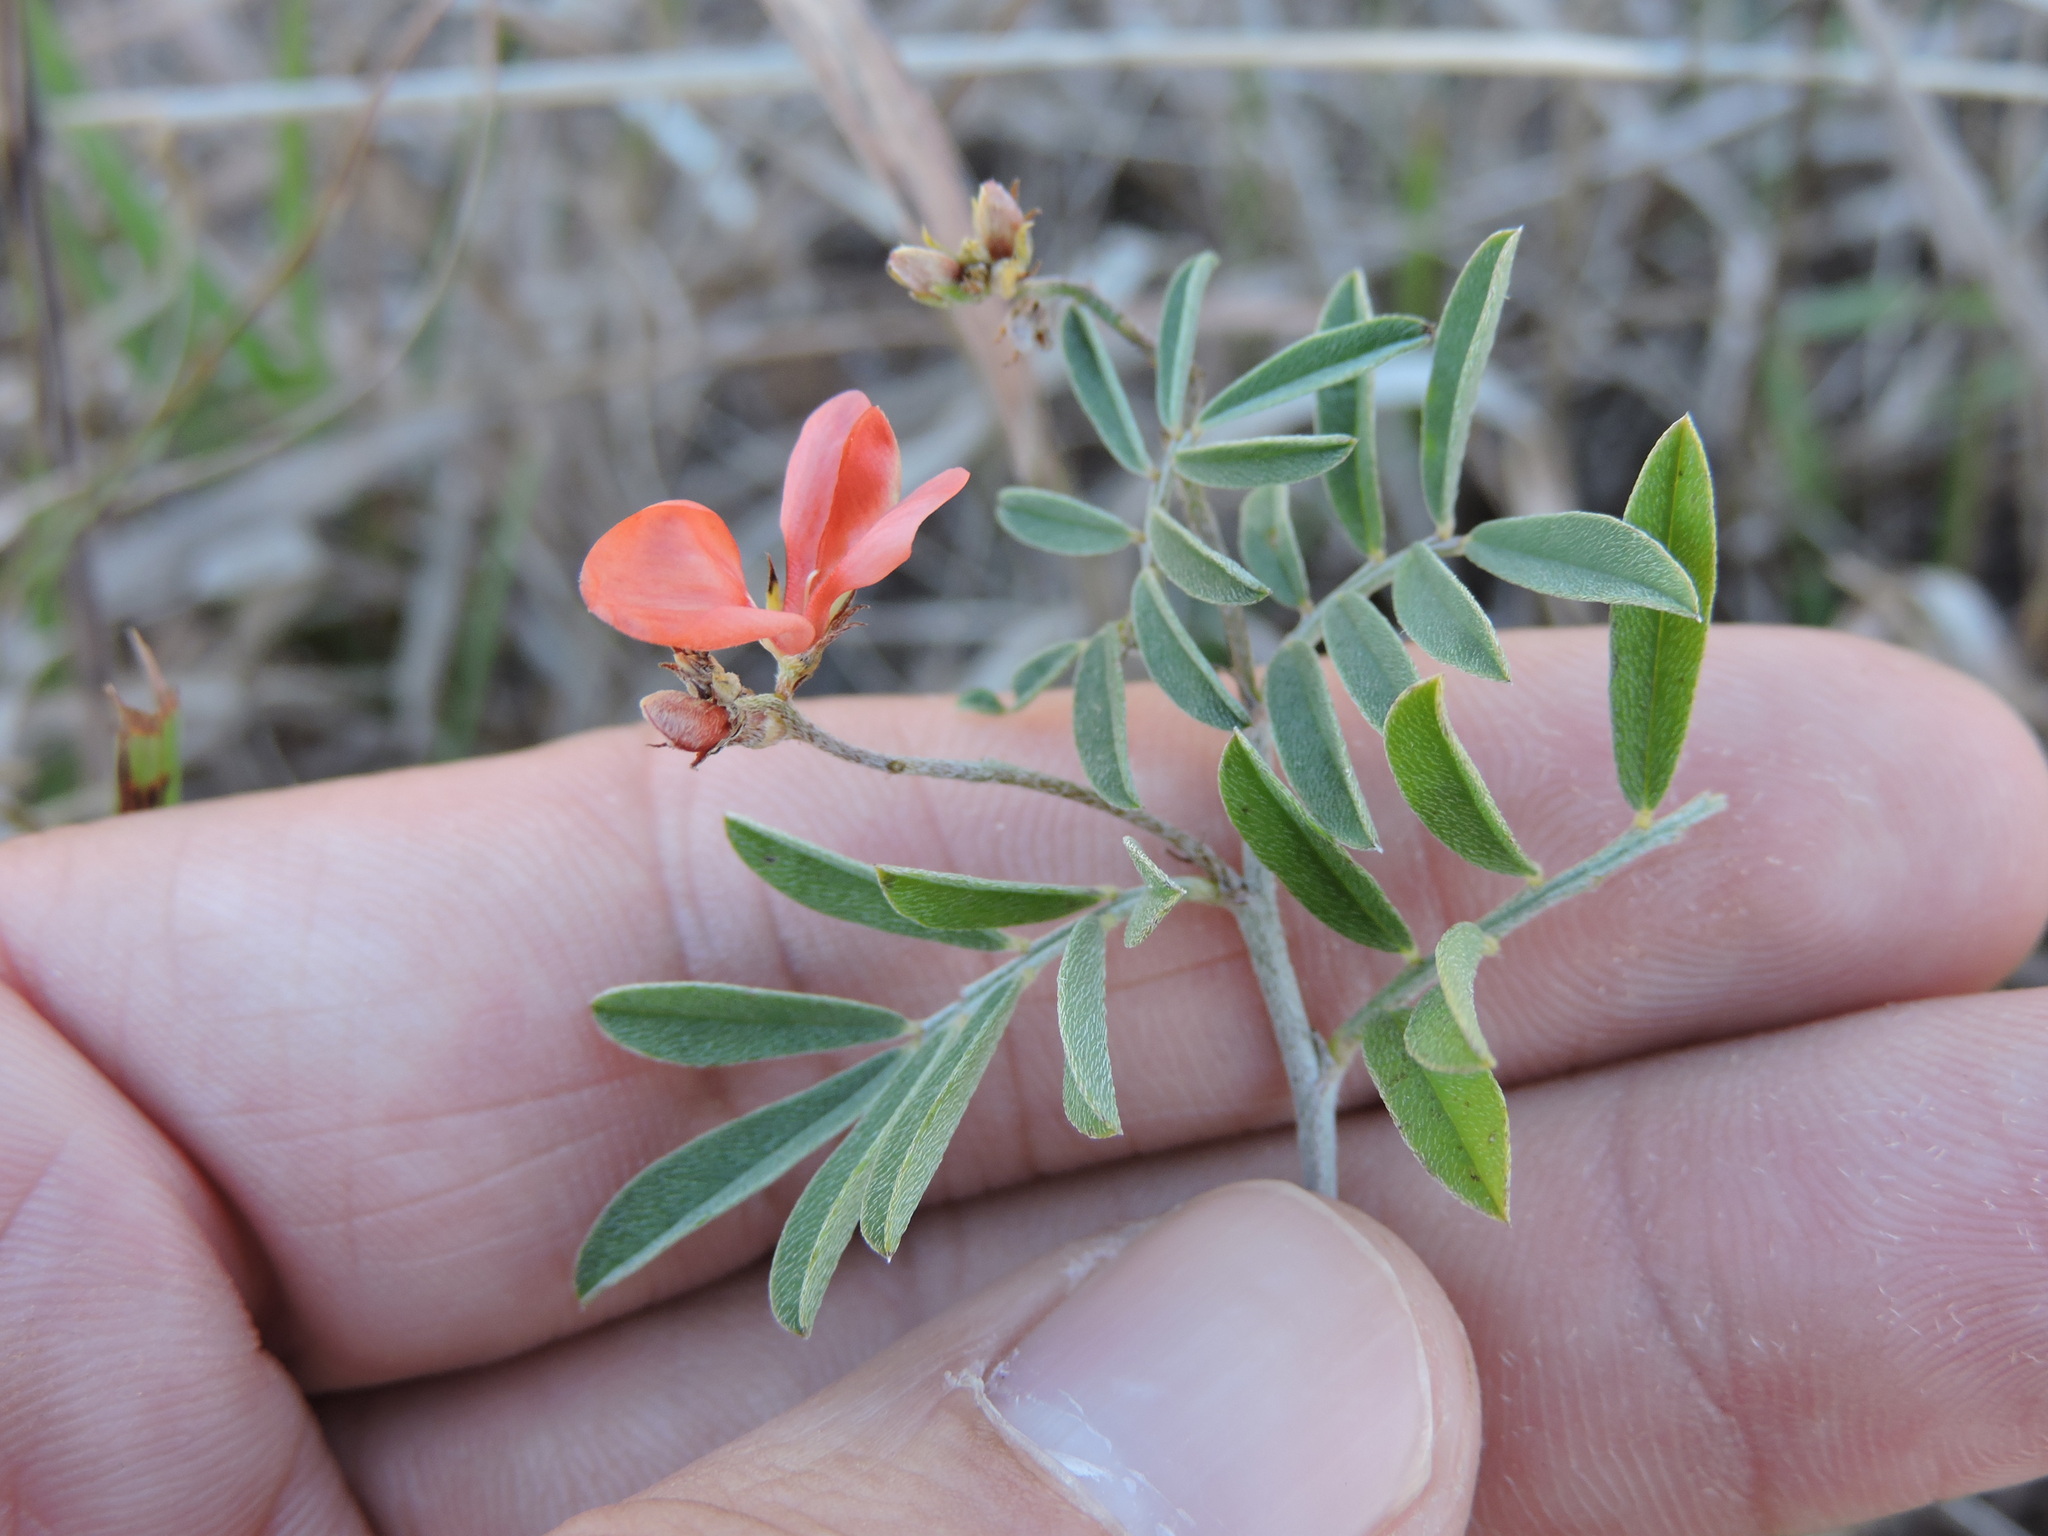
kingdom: Plantae
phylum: Tracheophyta
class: Magnoliopsida
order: Fabales
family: Fabaceae
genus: Indigofera
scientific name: Indigofera miniata
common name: Coast indigo
